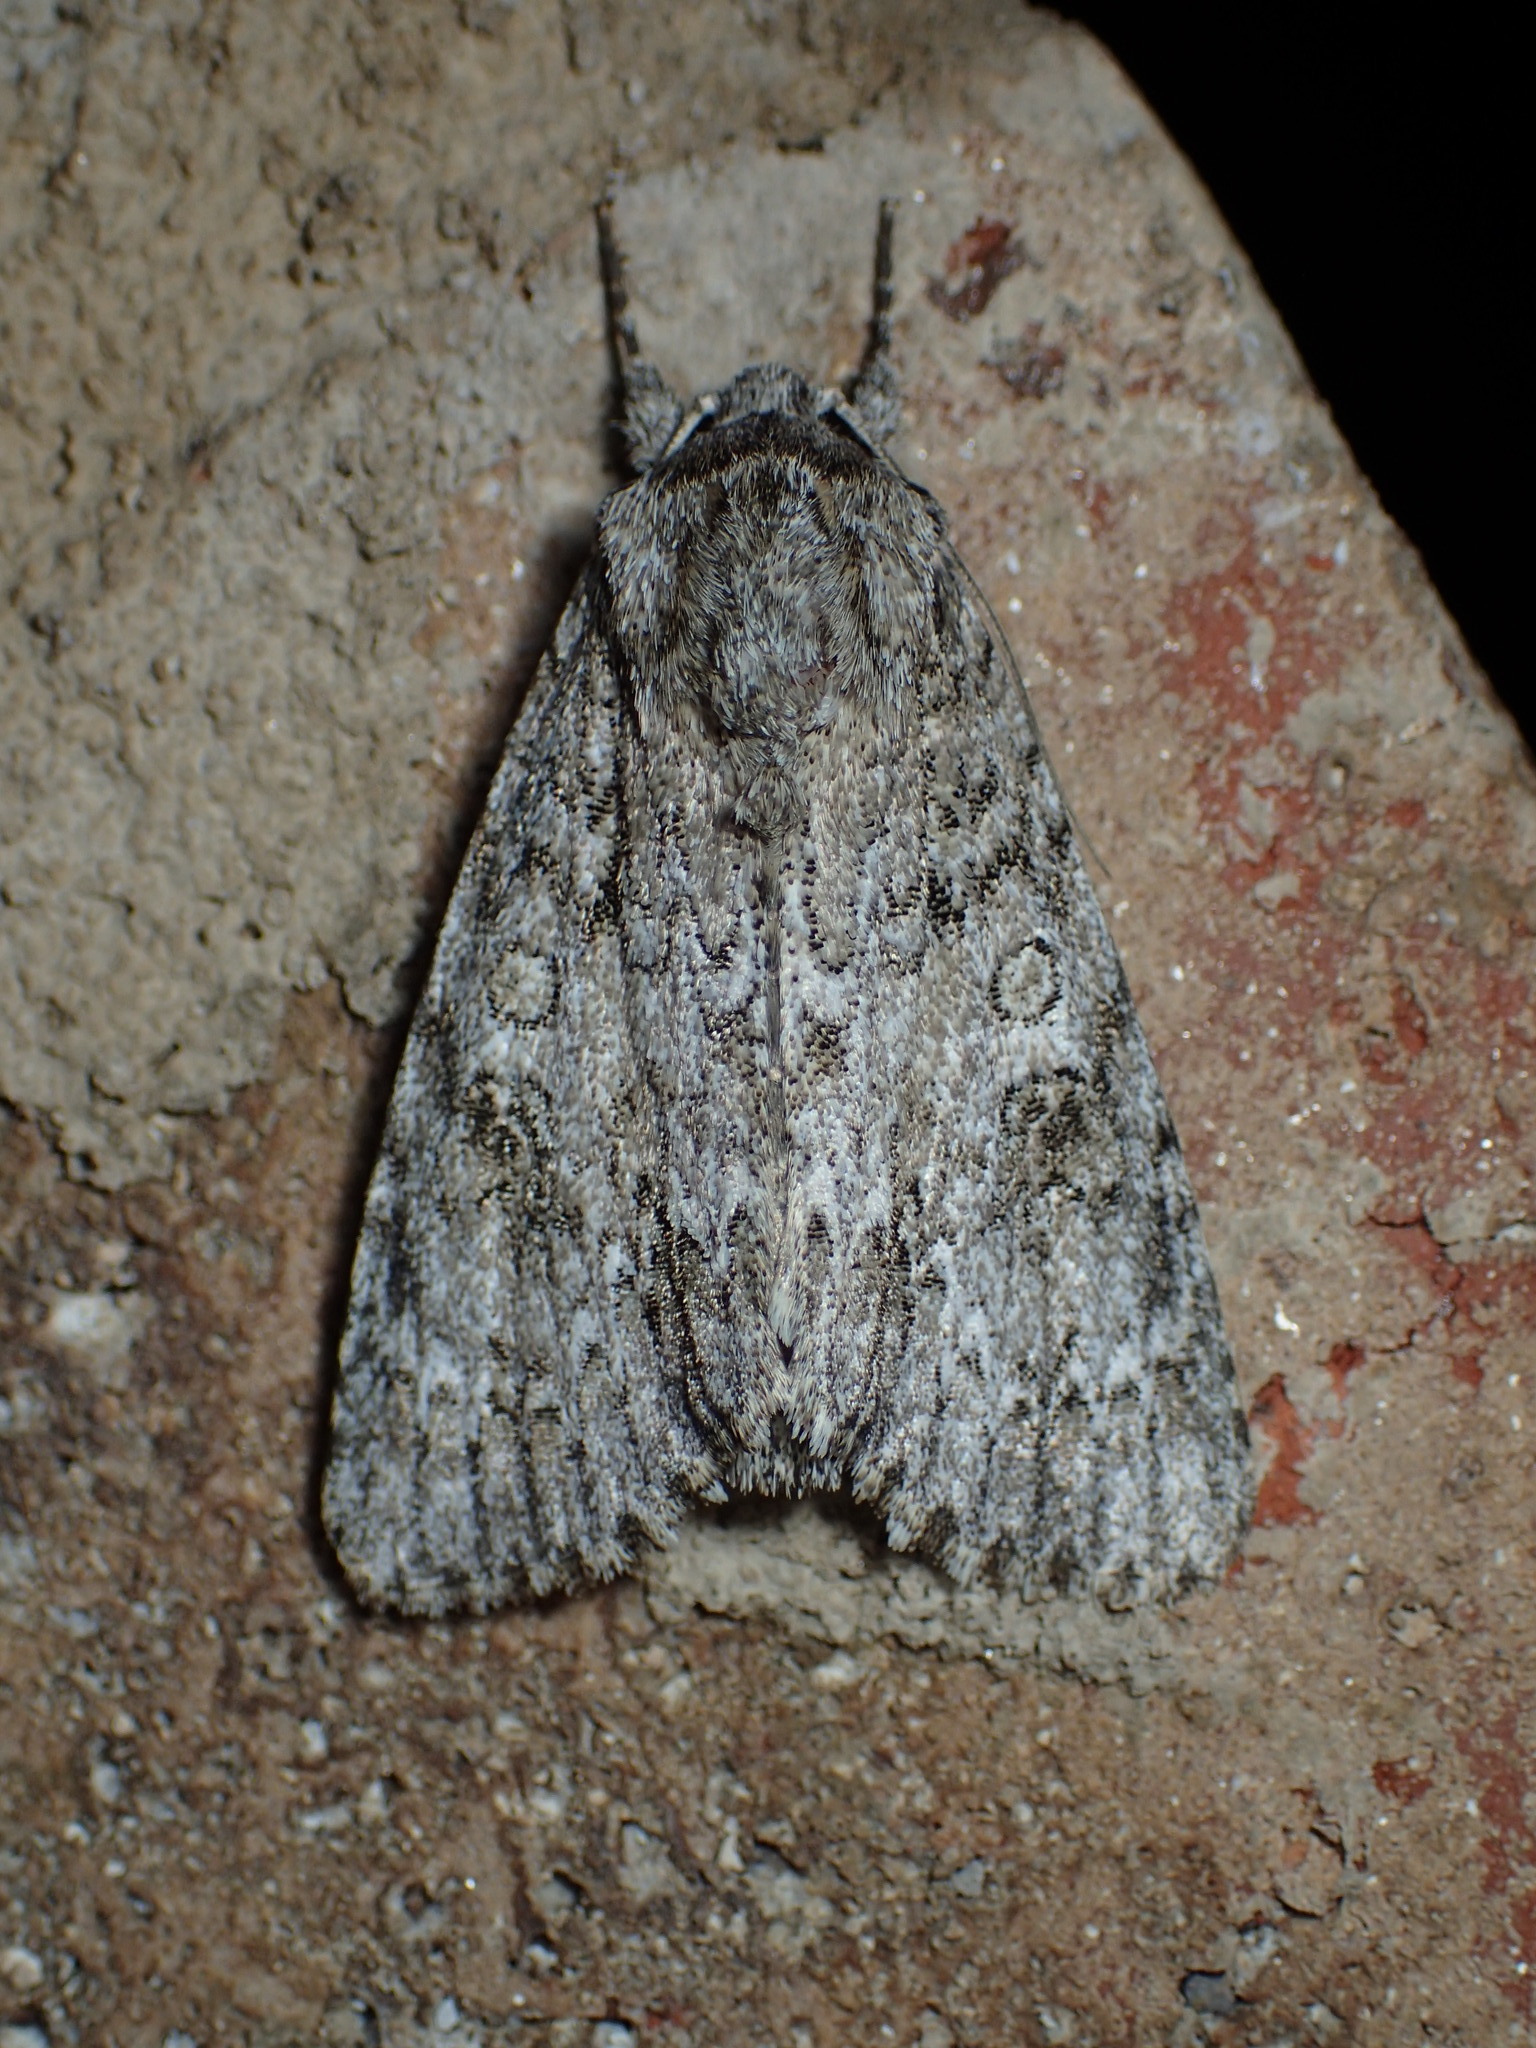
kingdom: Animalia
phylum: Arthropoda
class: Insecta
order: Lepidoptera
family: Noctuidae
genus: Acronicta
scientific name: Acronicta impleta
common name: Powdered dagger
